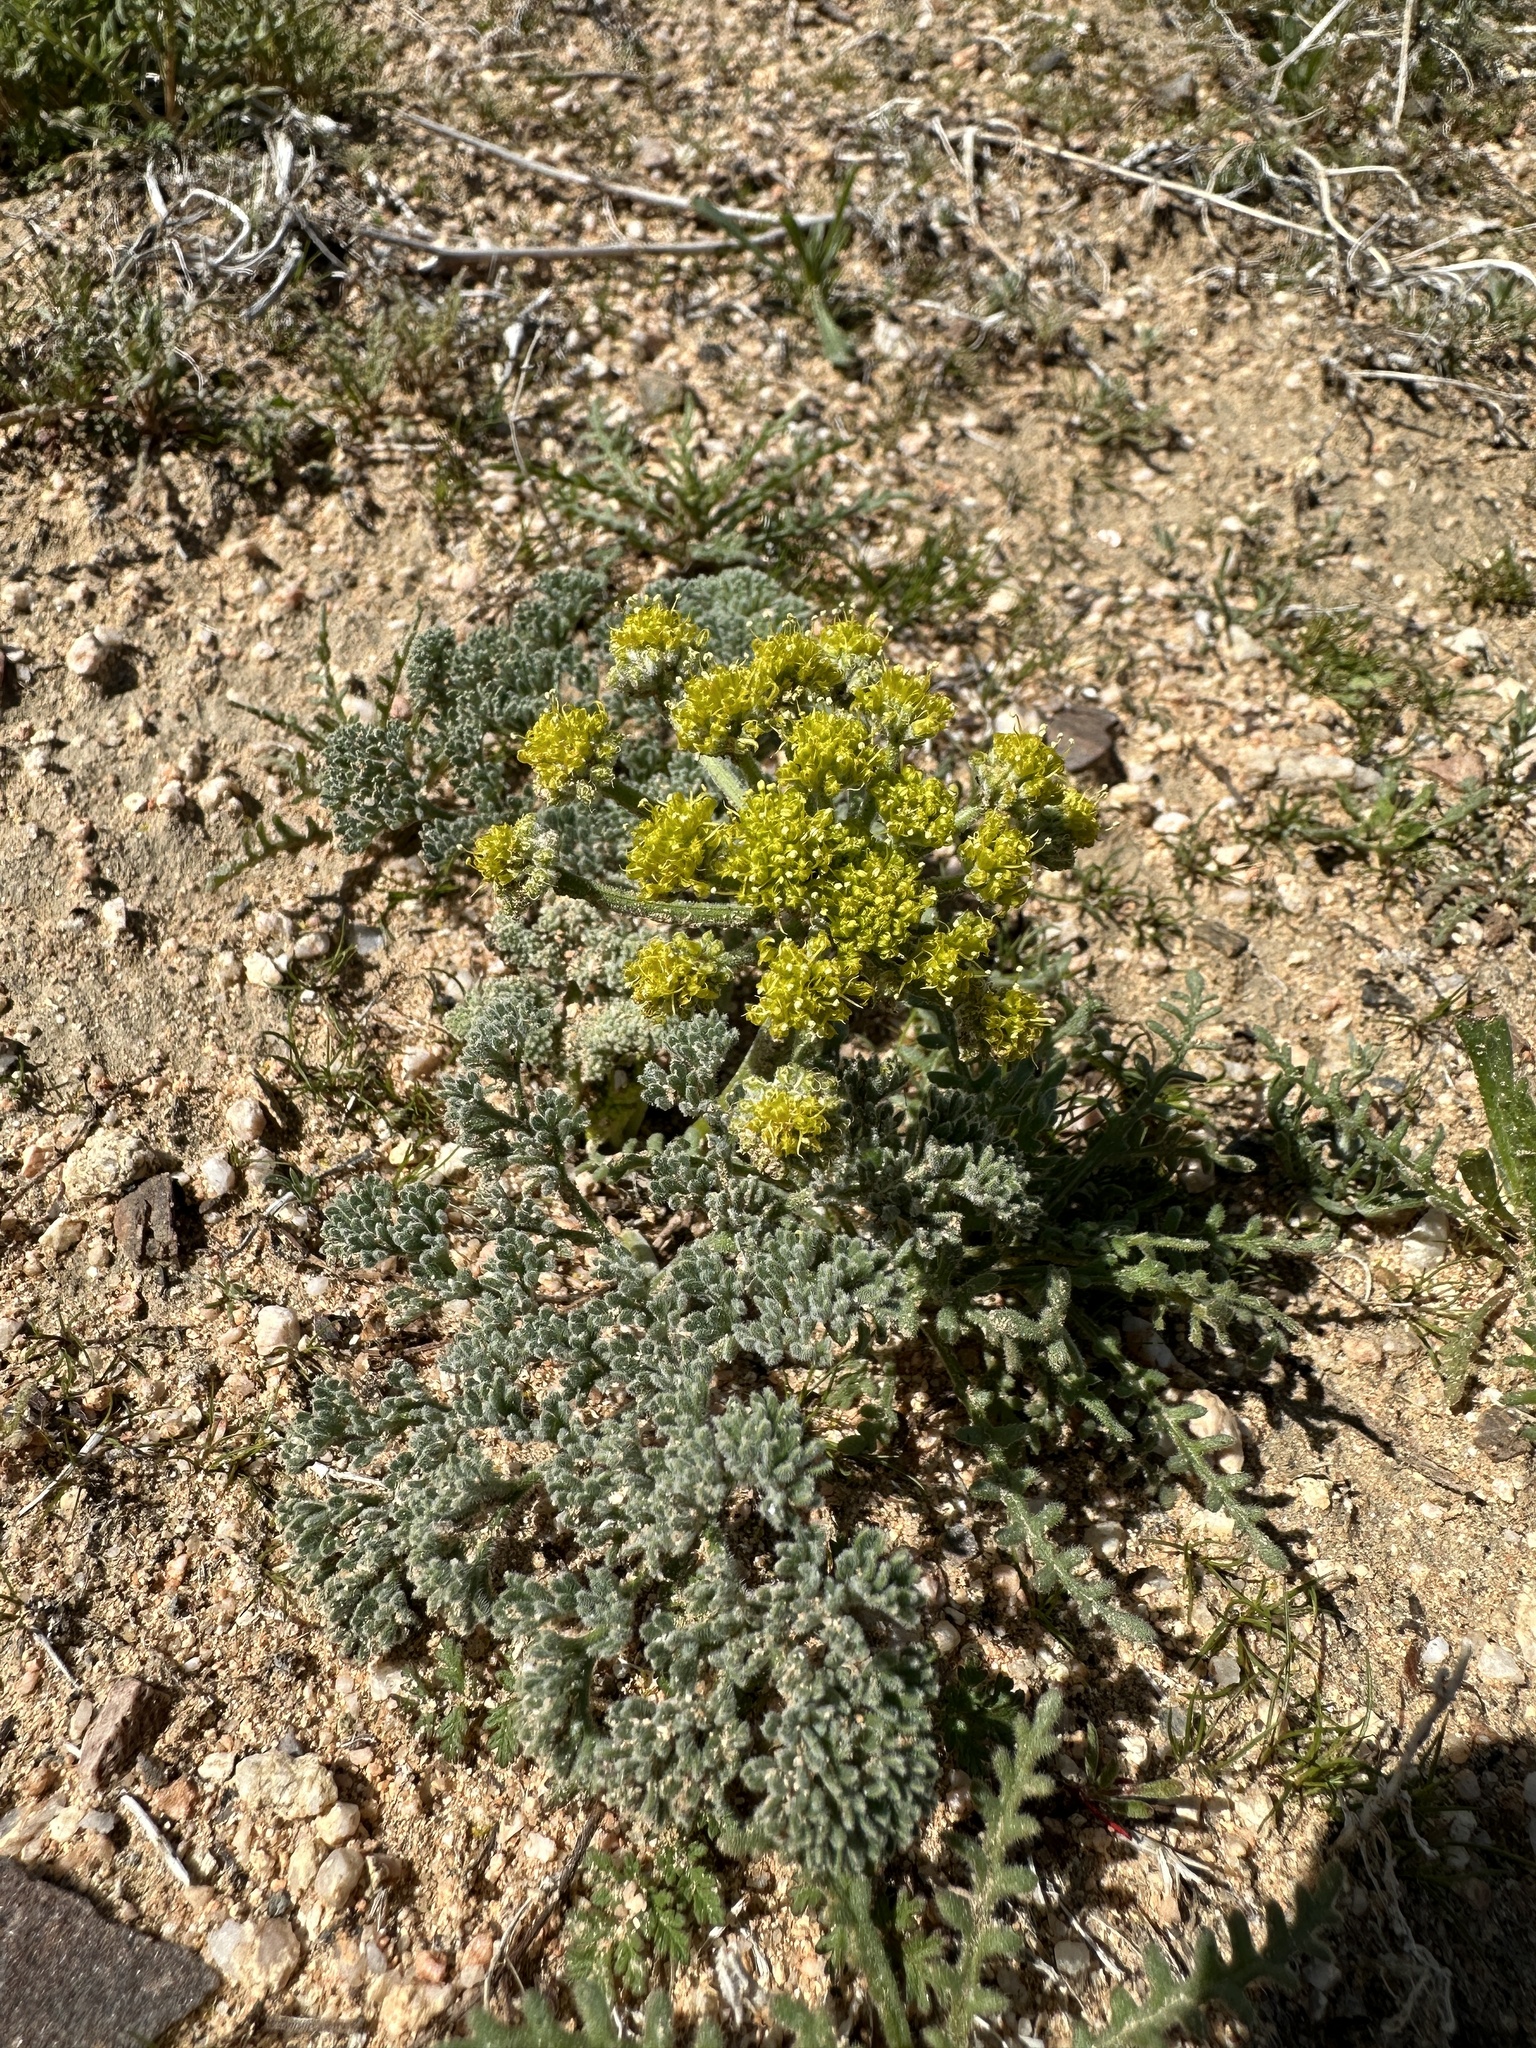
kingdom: Plantae
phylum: Tracheophyta
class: Magnoliopsida
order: Apiales
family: Apiaceae
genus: Lomatium
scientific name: Lomatium mohavense
